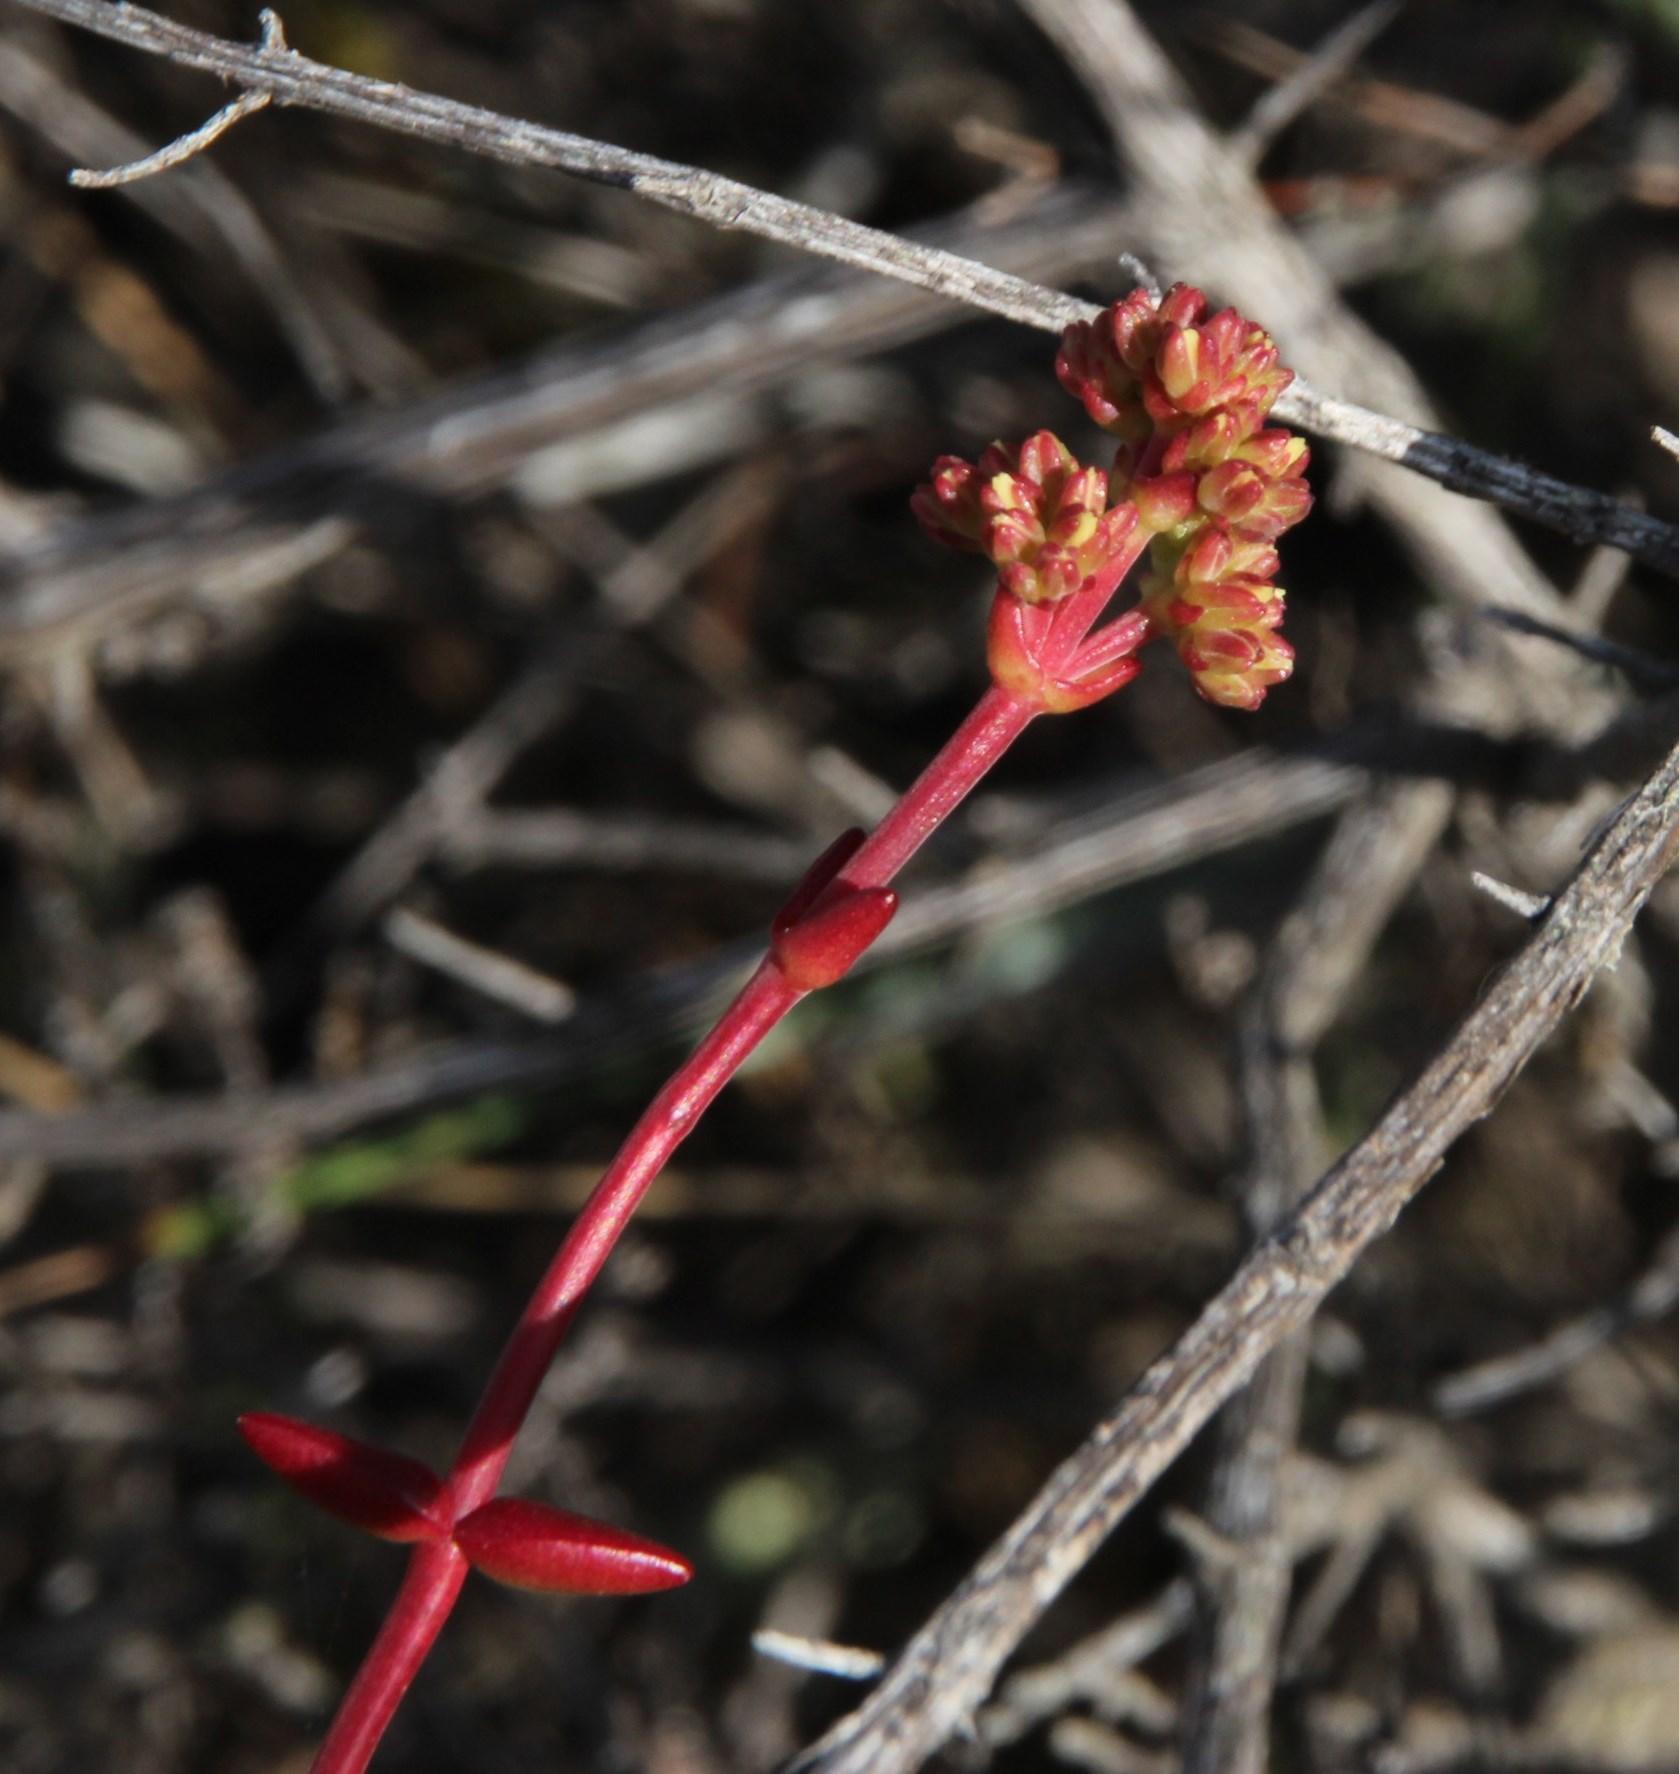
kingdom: Plantae
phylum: Tracheophyta
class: Magnoliopsida
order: Saxifragales
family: Crassulaceae
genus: Crassula
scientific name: Crassula subaphylla
